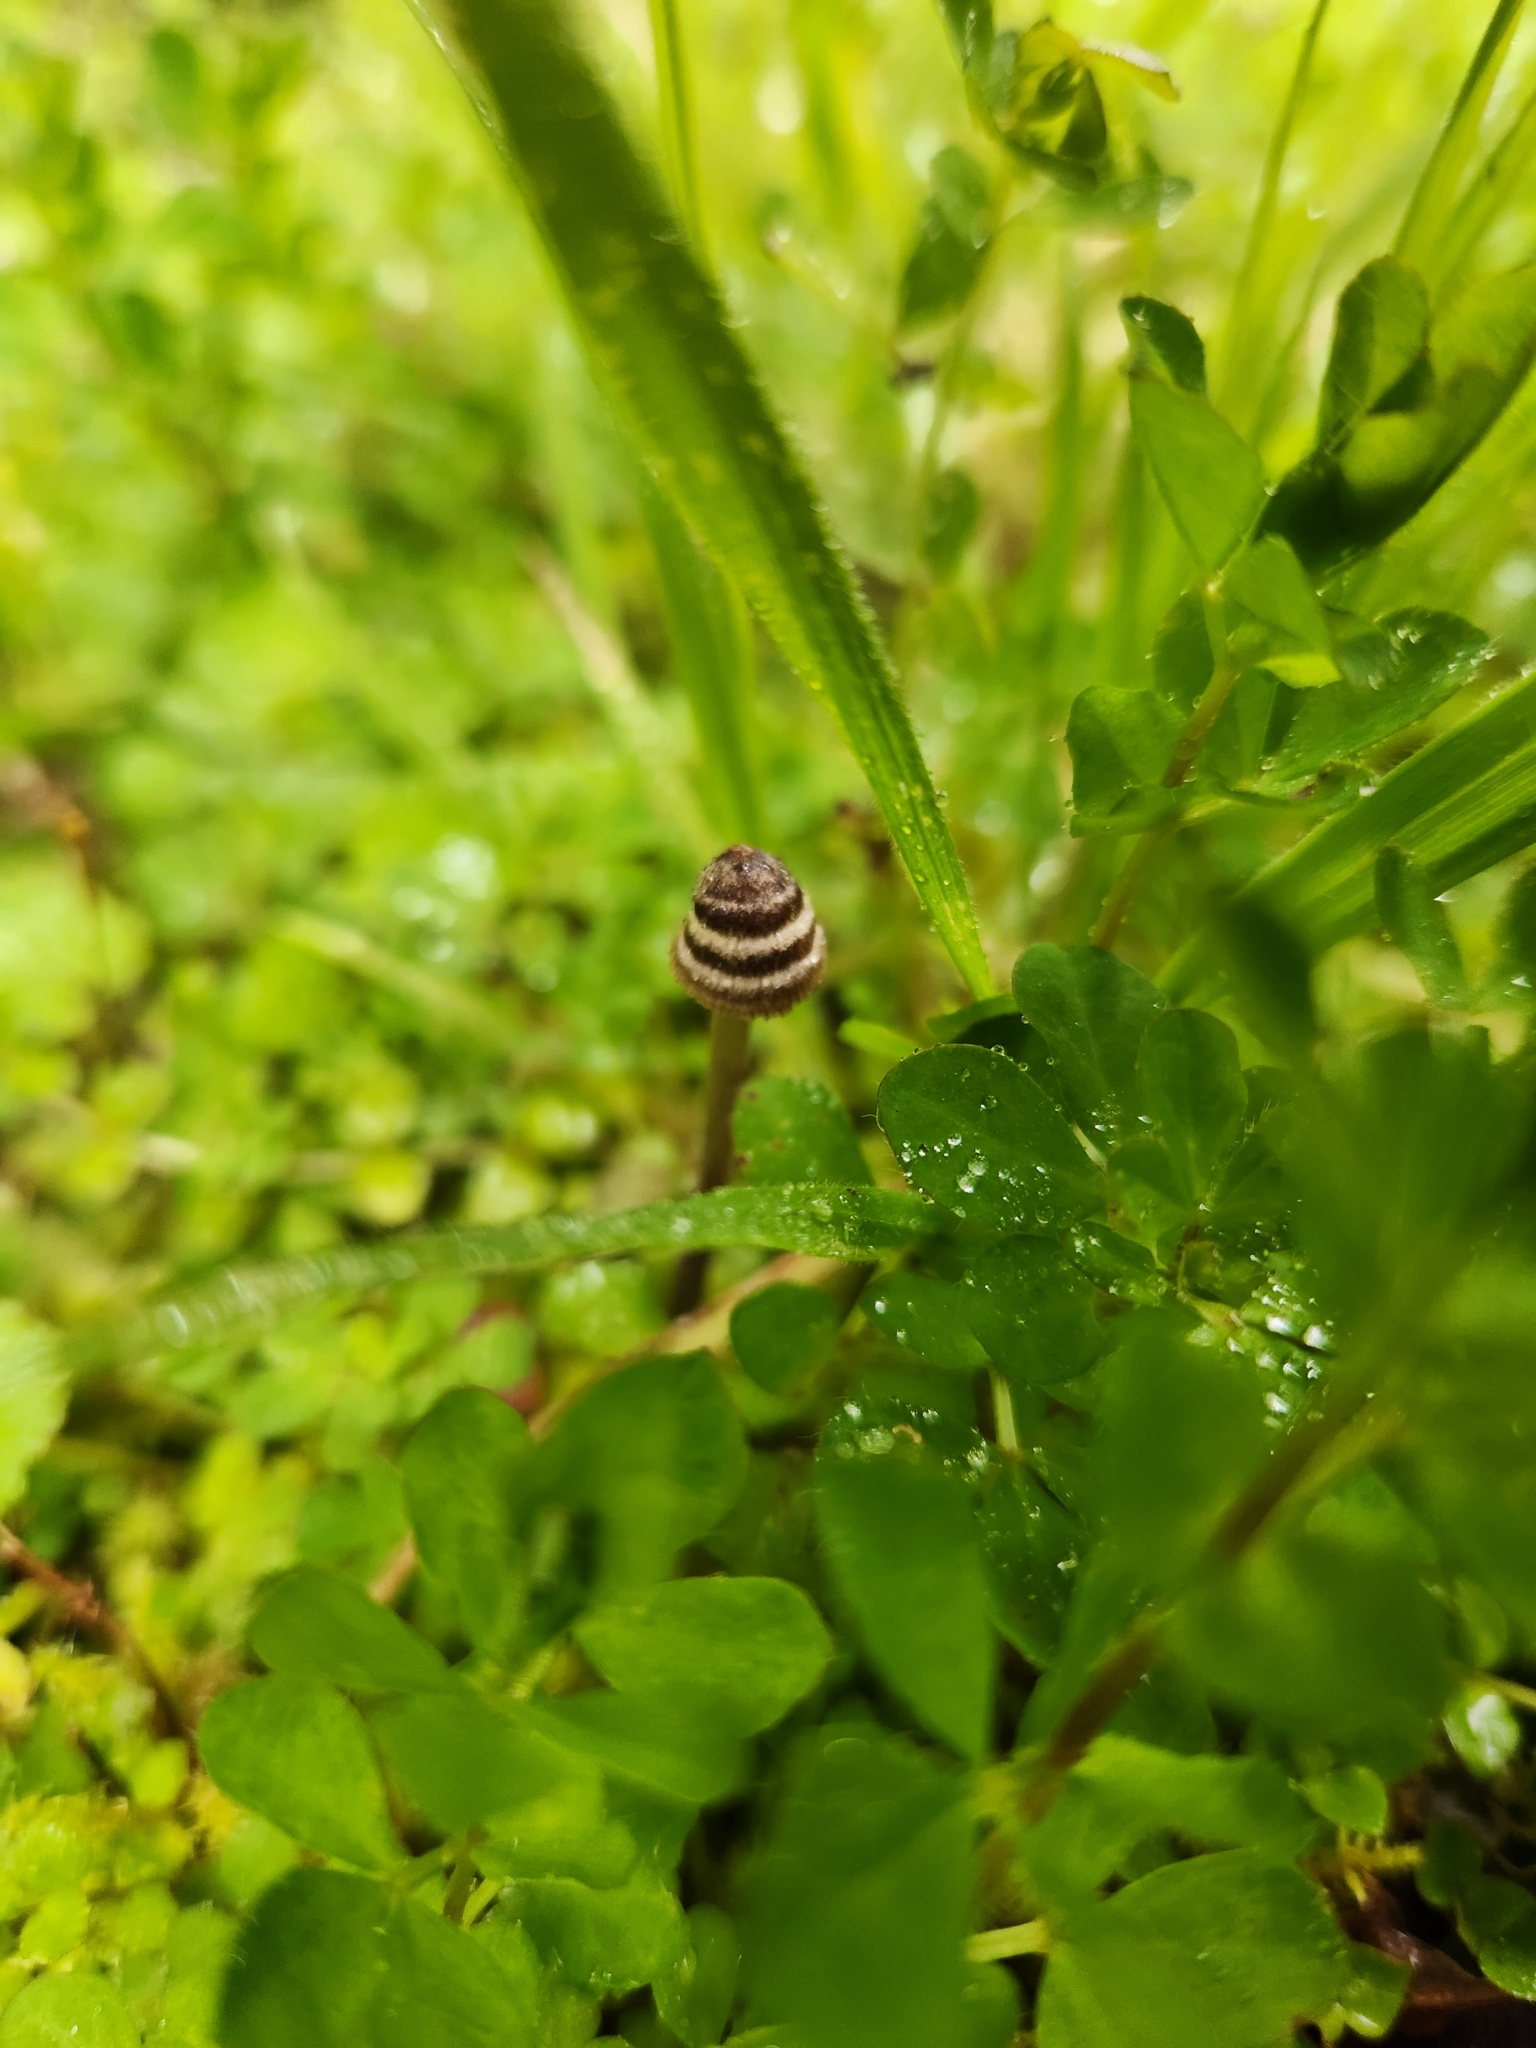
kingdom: Fungi
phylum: Basidiomycota
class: Agaricomycetes
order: Agaricales
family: Entolomataceae
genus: Entoloma
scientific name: Entoloma perzonatum
